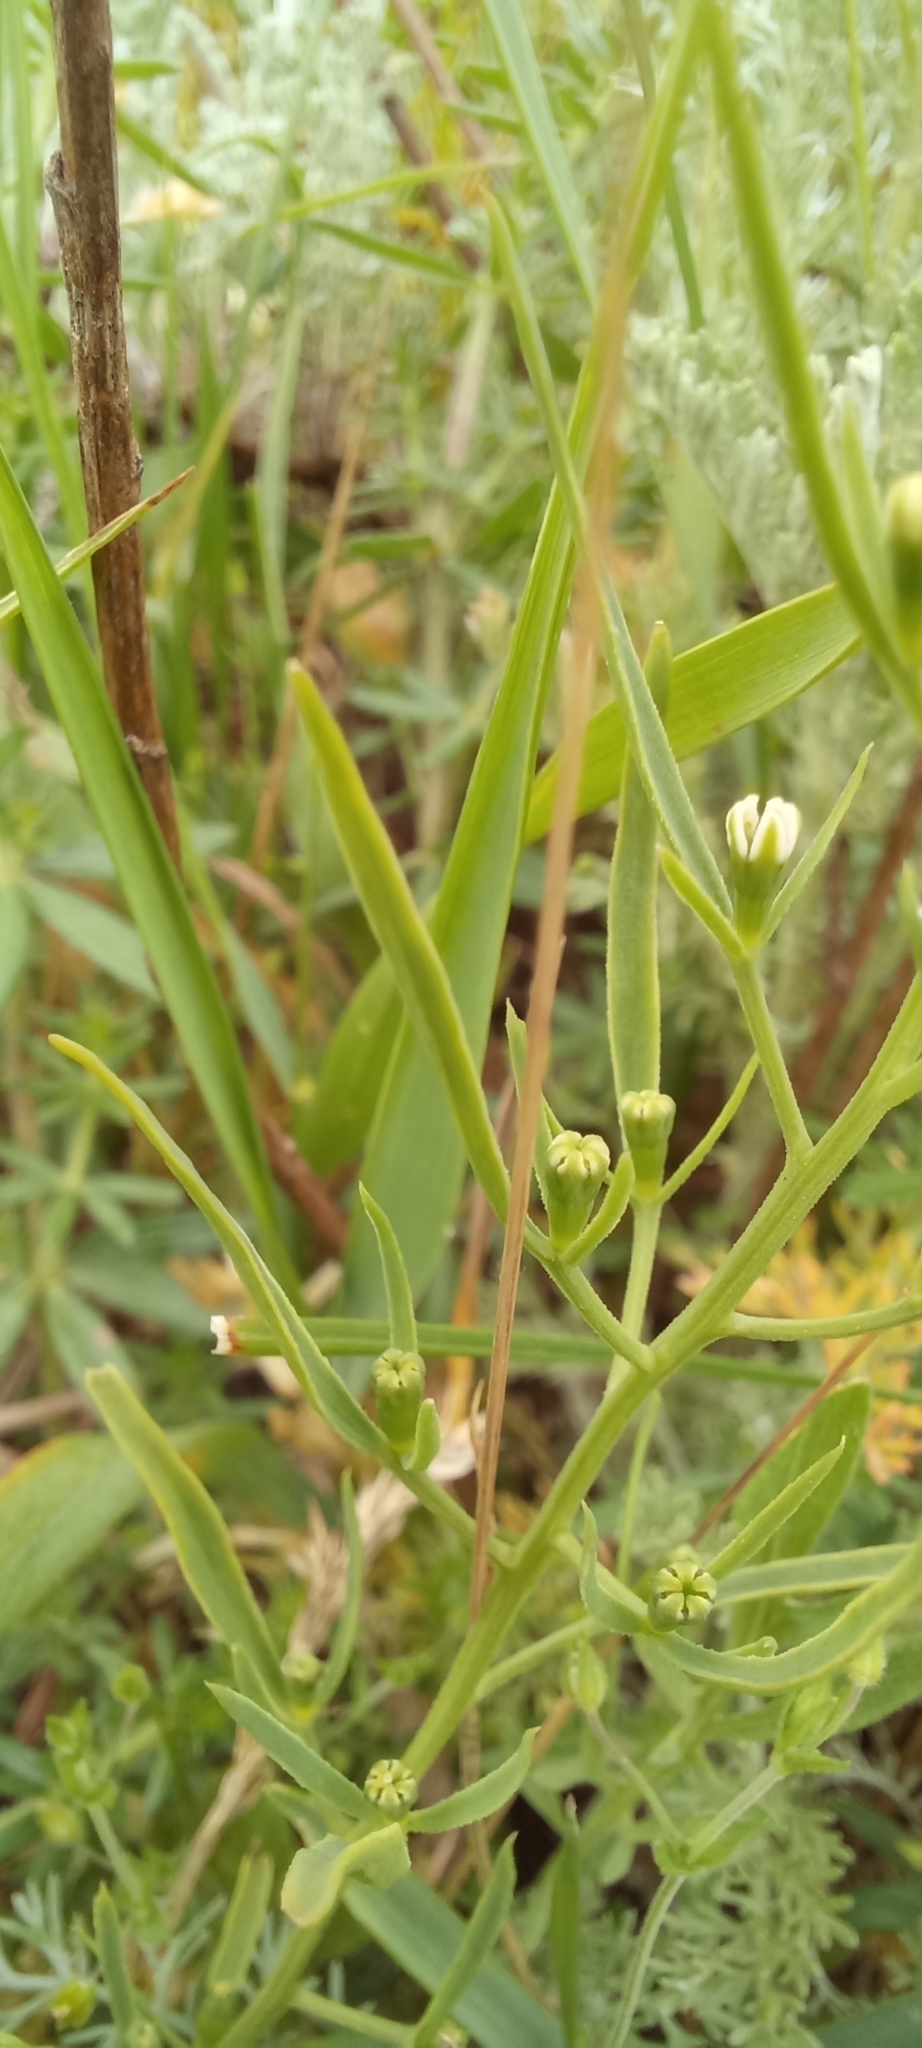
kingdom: Plantae
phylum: Tracheophyta
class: Magnoliopsida
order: Santalales
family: Thesiaceae
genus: Thesium
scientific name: Thesium ramosum
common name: Field thesium
